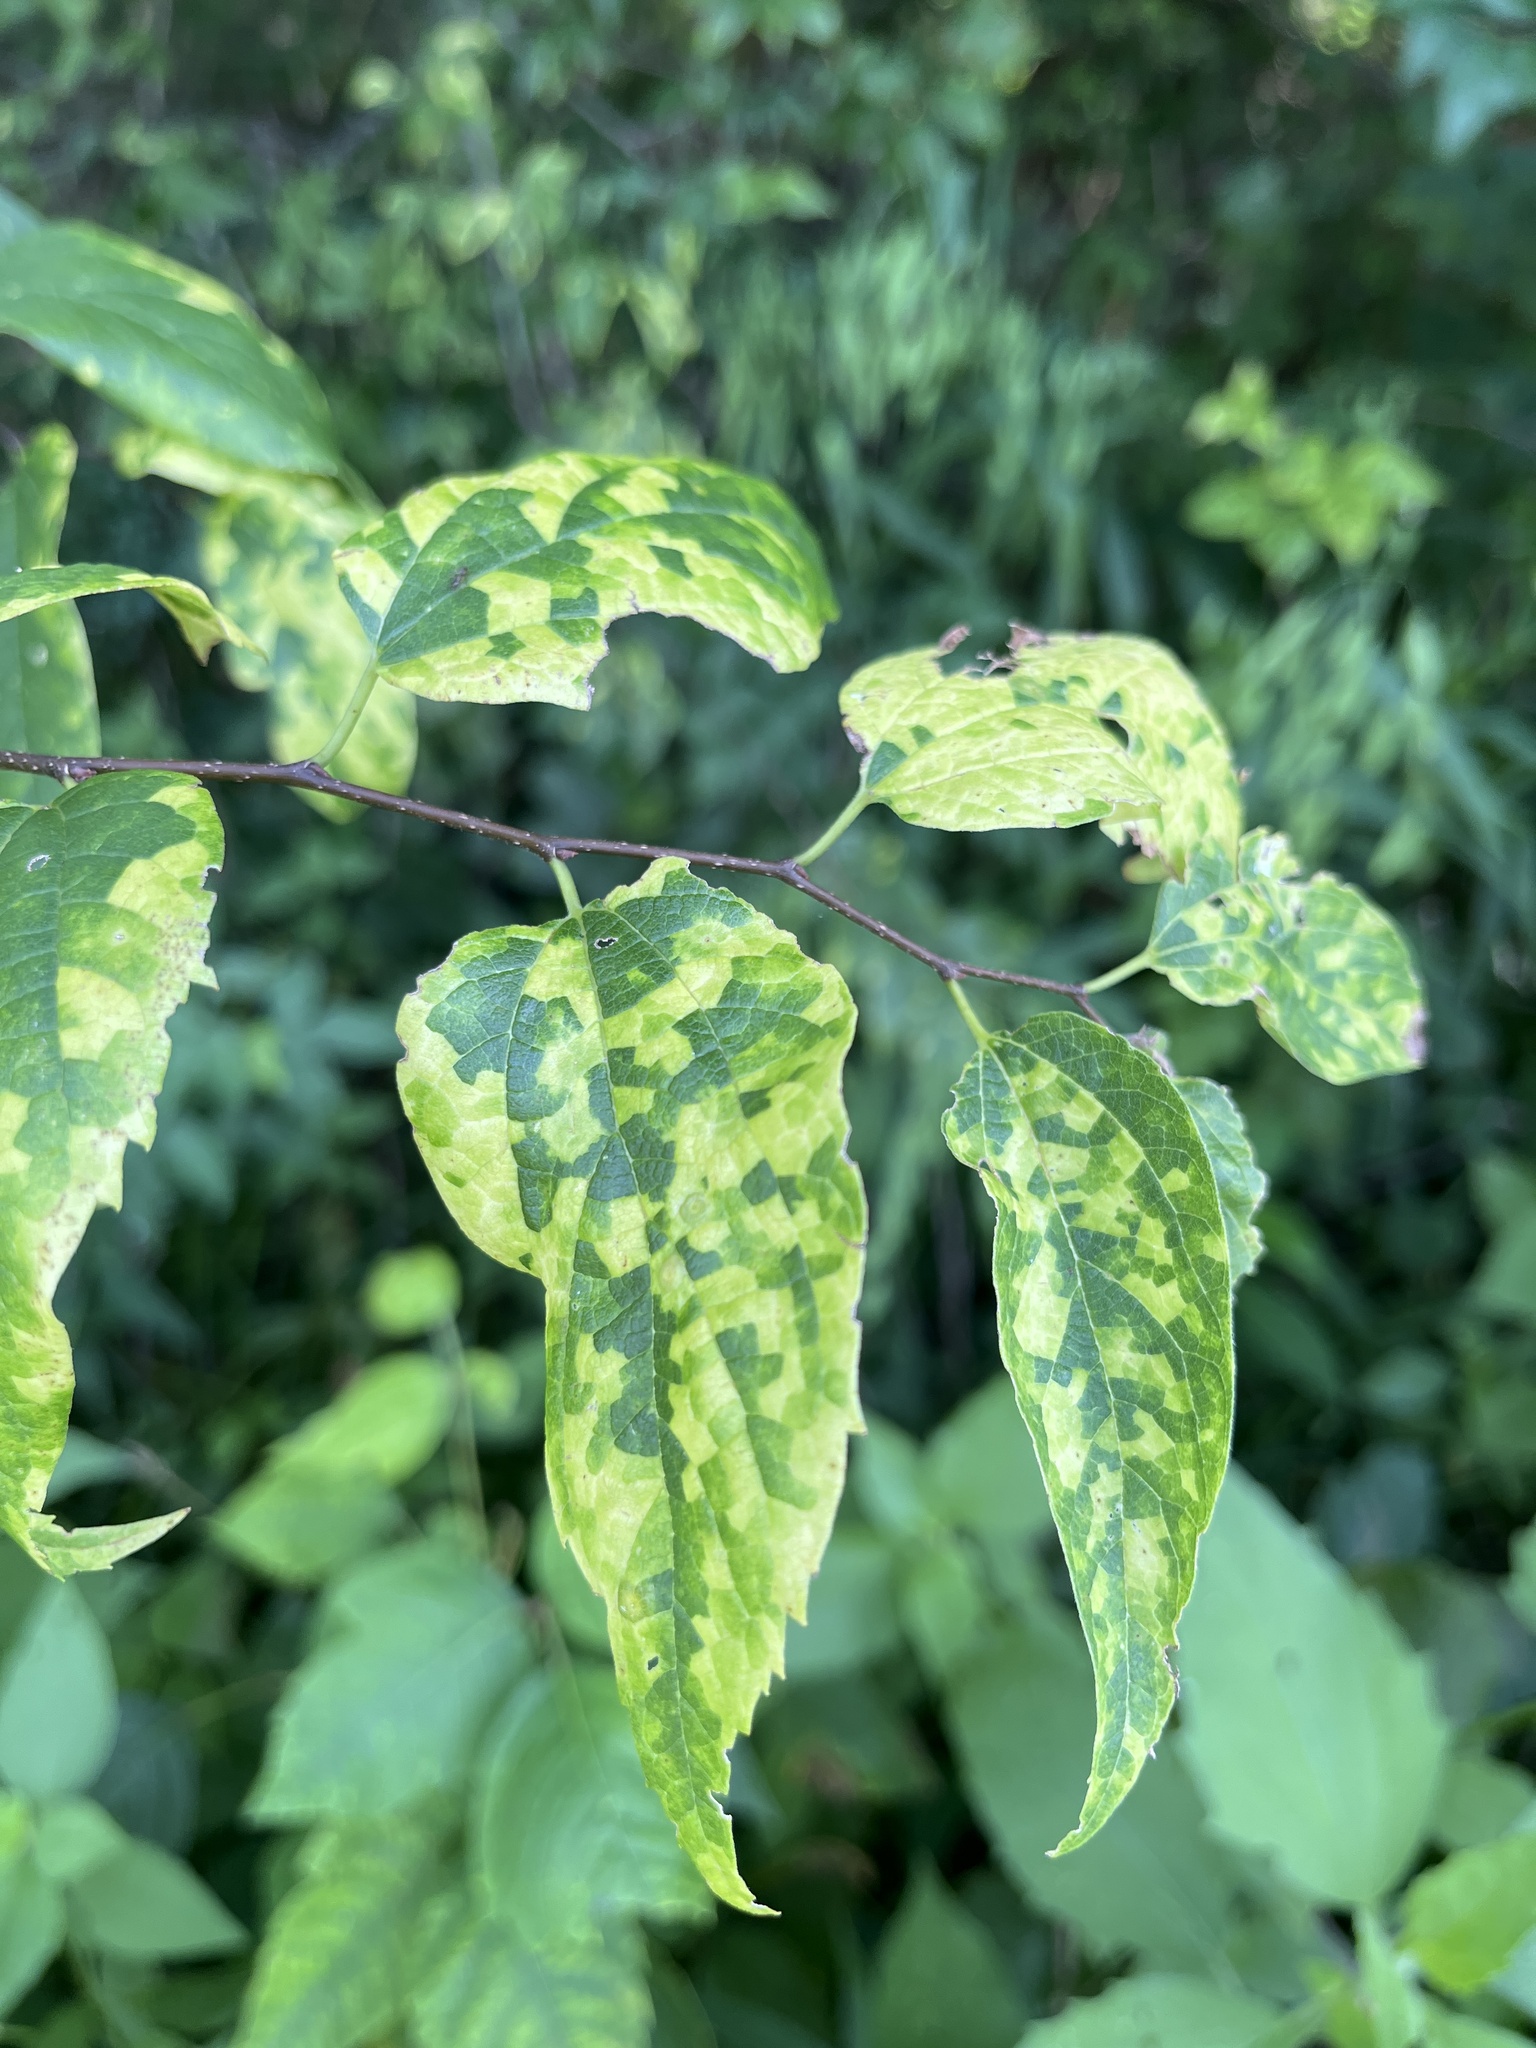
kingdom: Viruses
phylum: Kitrinoviricota
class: Alsuviricetes
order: Martellivirales
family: Closteroviridae
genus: Ampelovirus
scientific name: Ampelovirus
